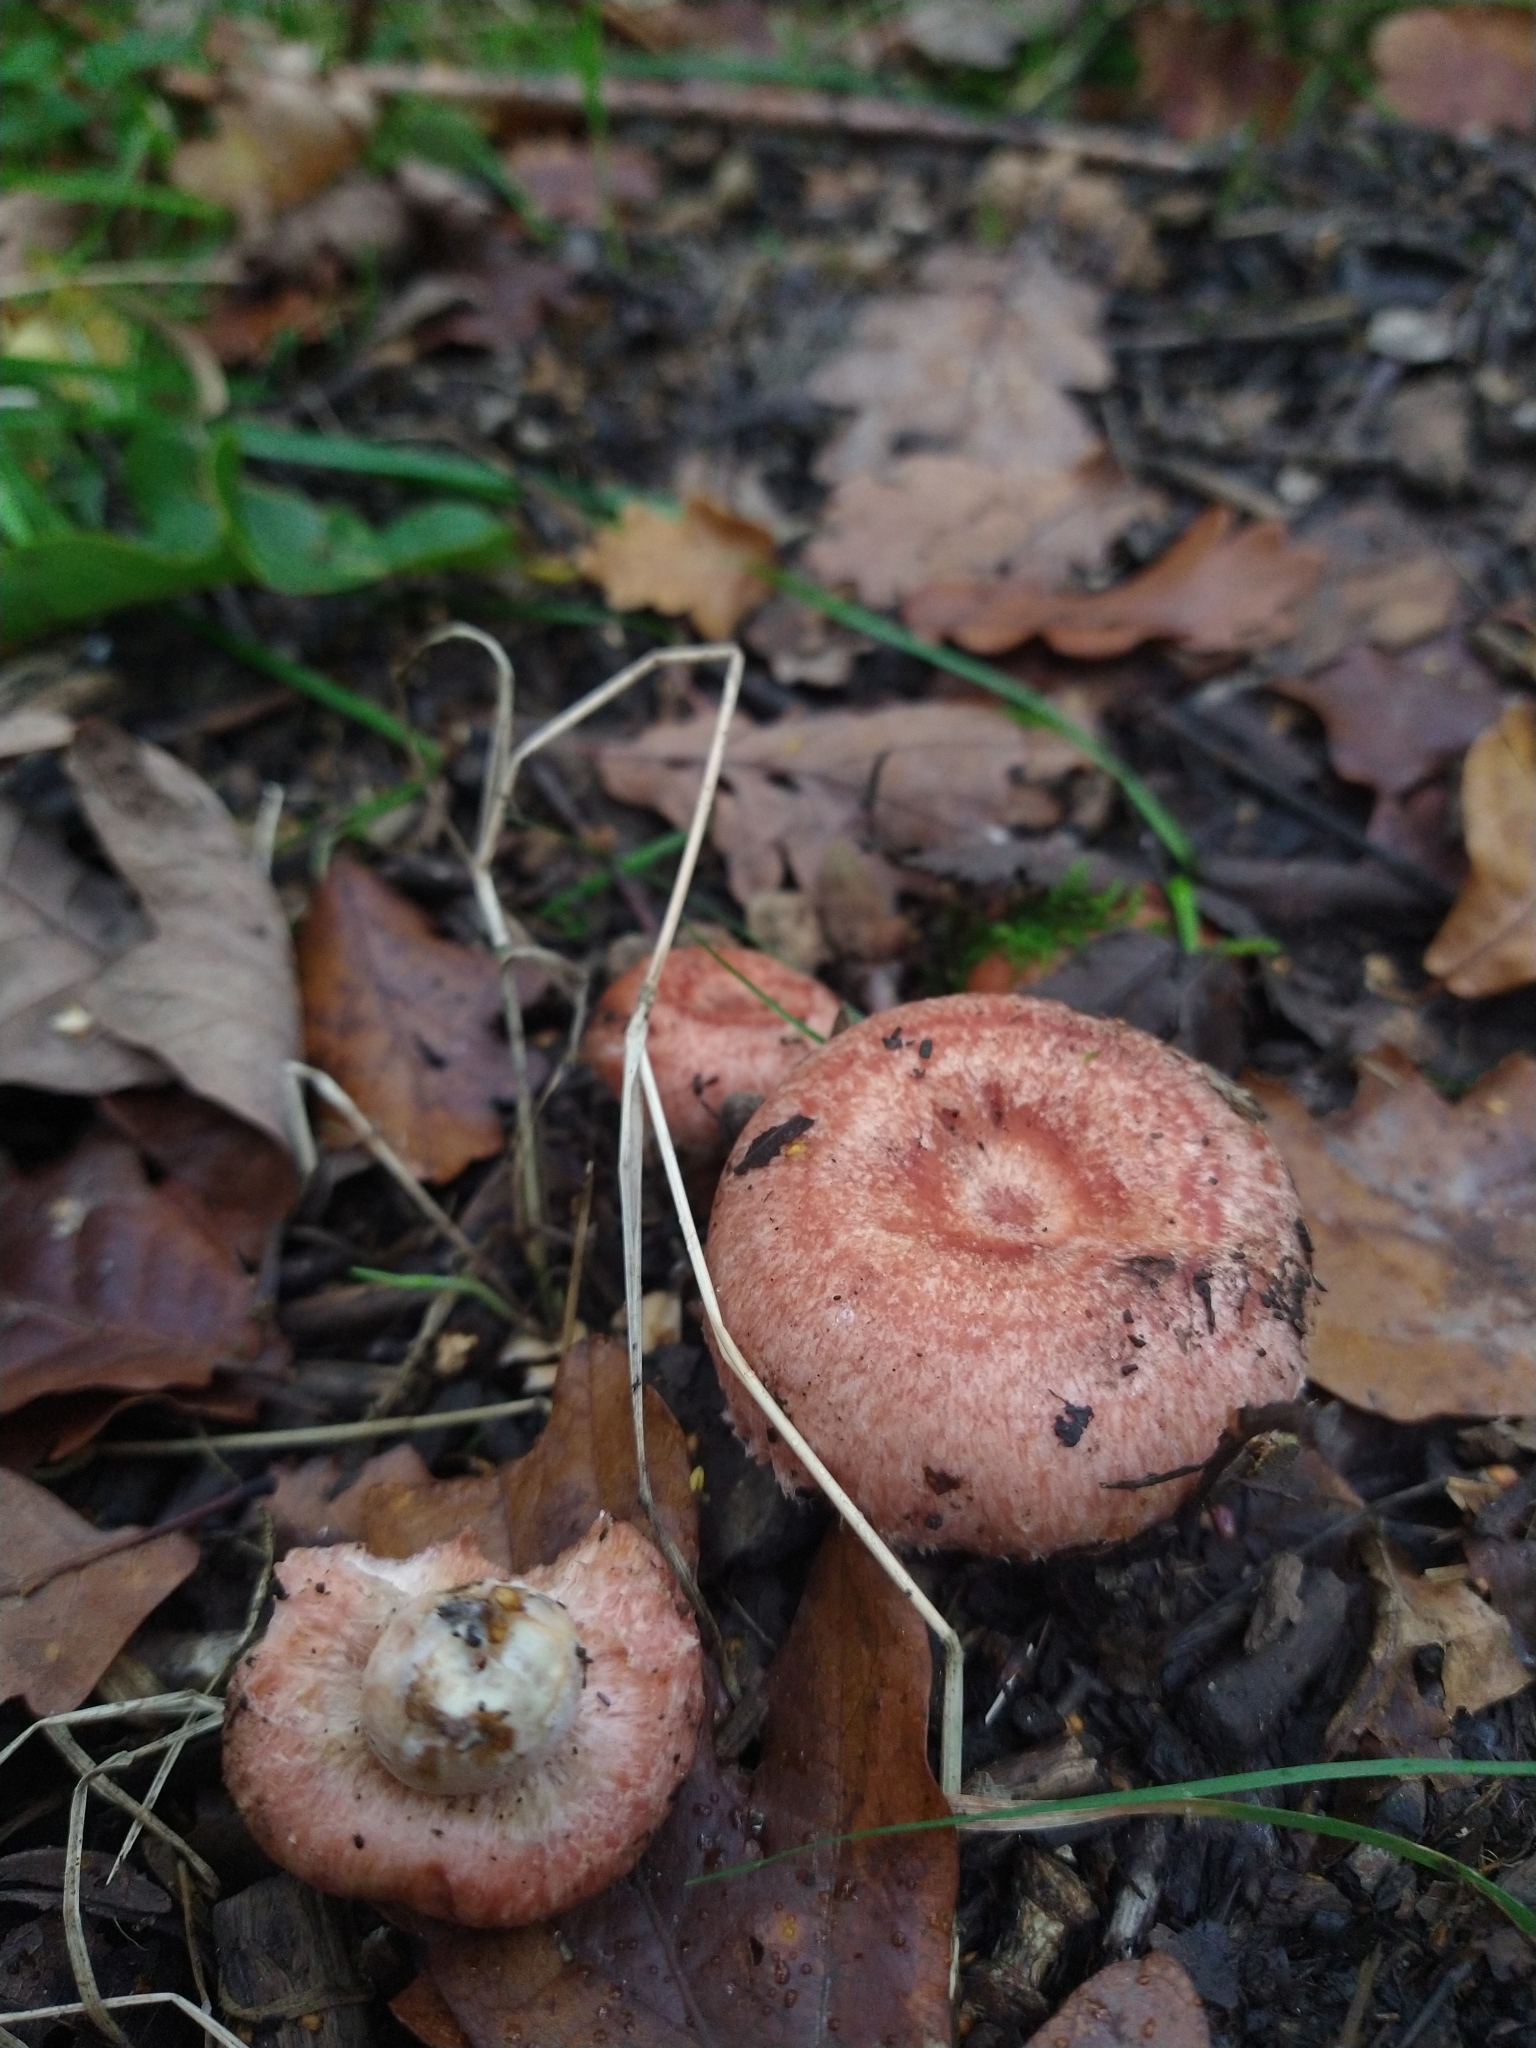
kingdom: Fungi
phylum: Basidiomycota
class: Agaricomycetes
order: Russulales
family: Russulaceae
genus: Lactarius
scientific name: Lactarius torminosus
